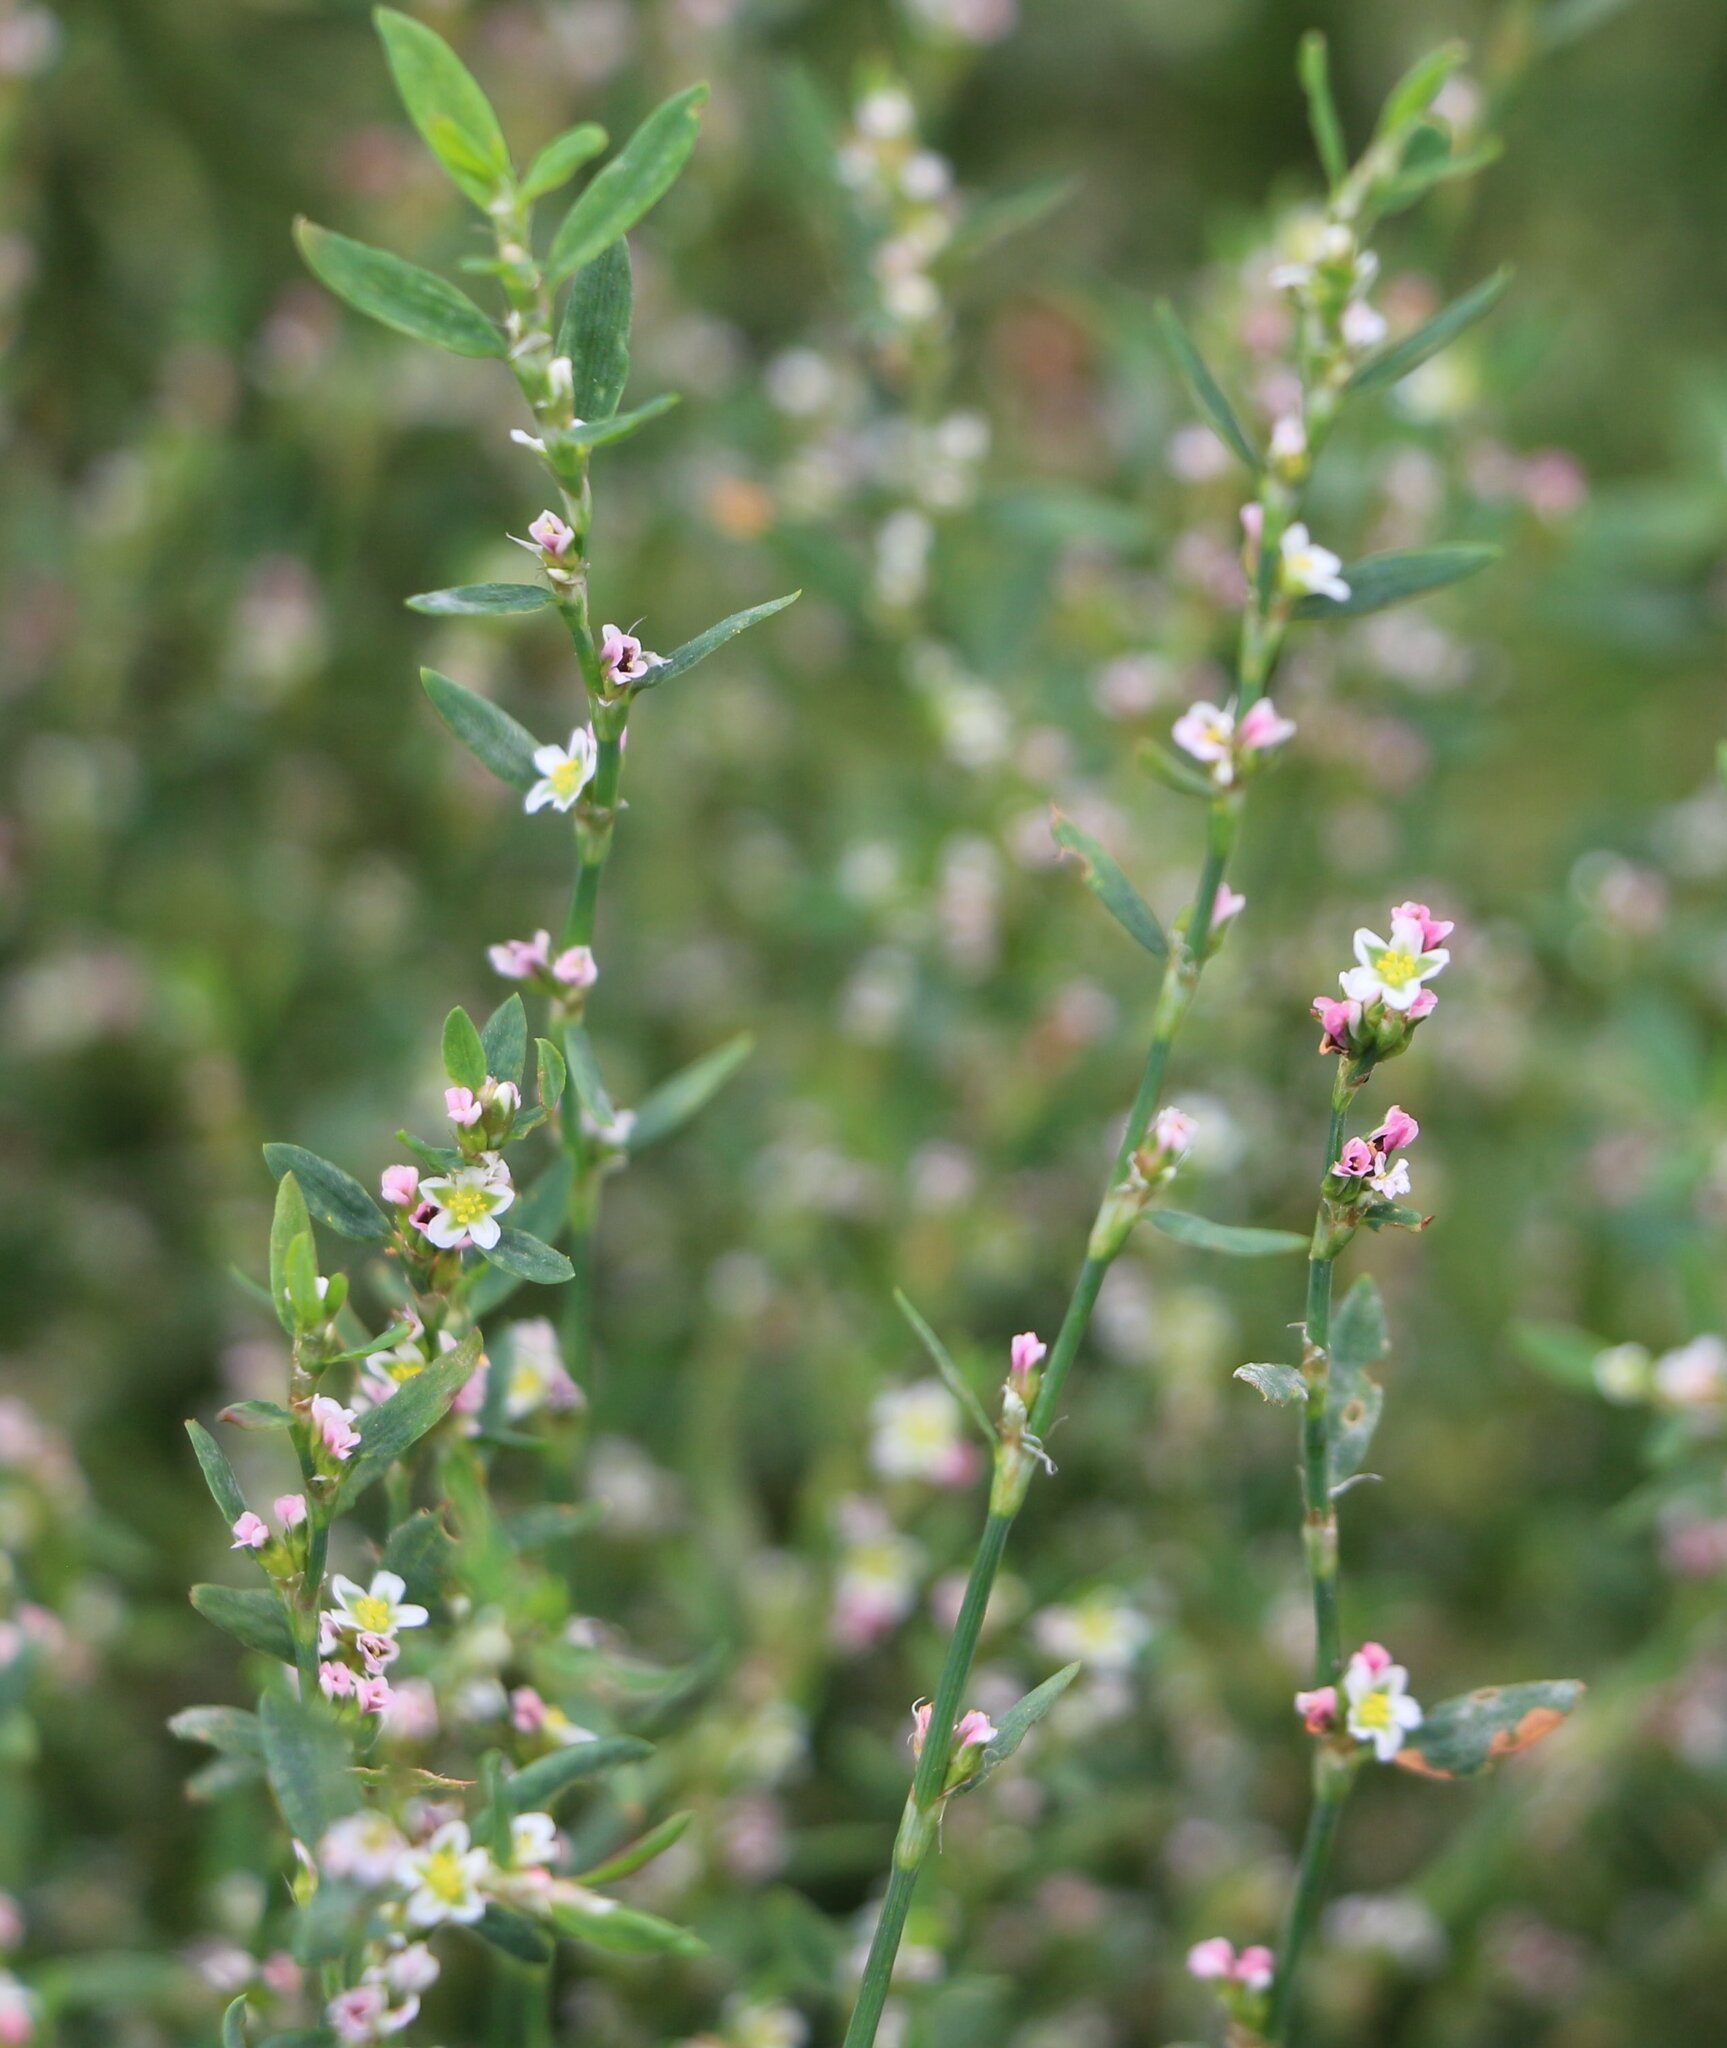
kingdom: Plantae
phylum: Tracheophyta
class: Magnoliopsida
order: Caryophyllales
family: Polygonaceae
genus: Polygonum
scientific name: Polygonum arenastrum
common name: Equal-leaved knotgrass
